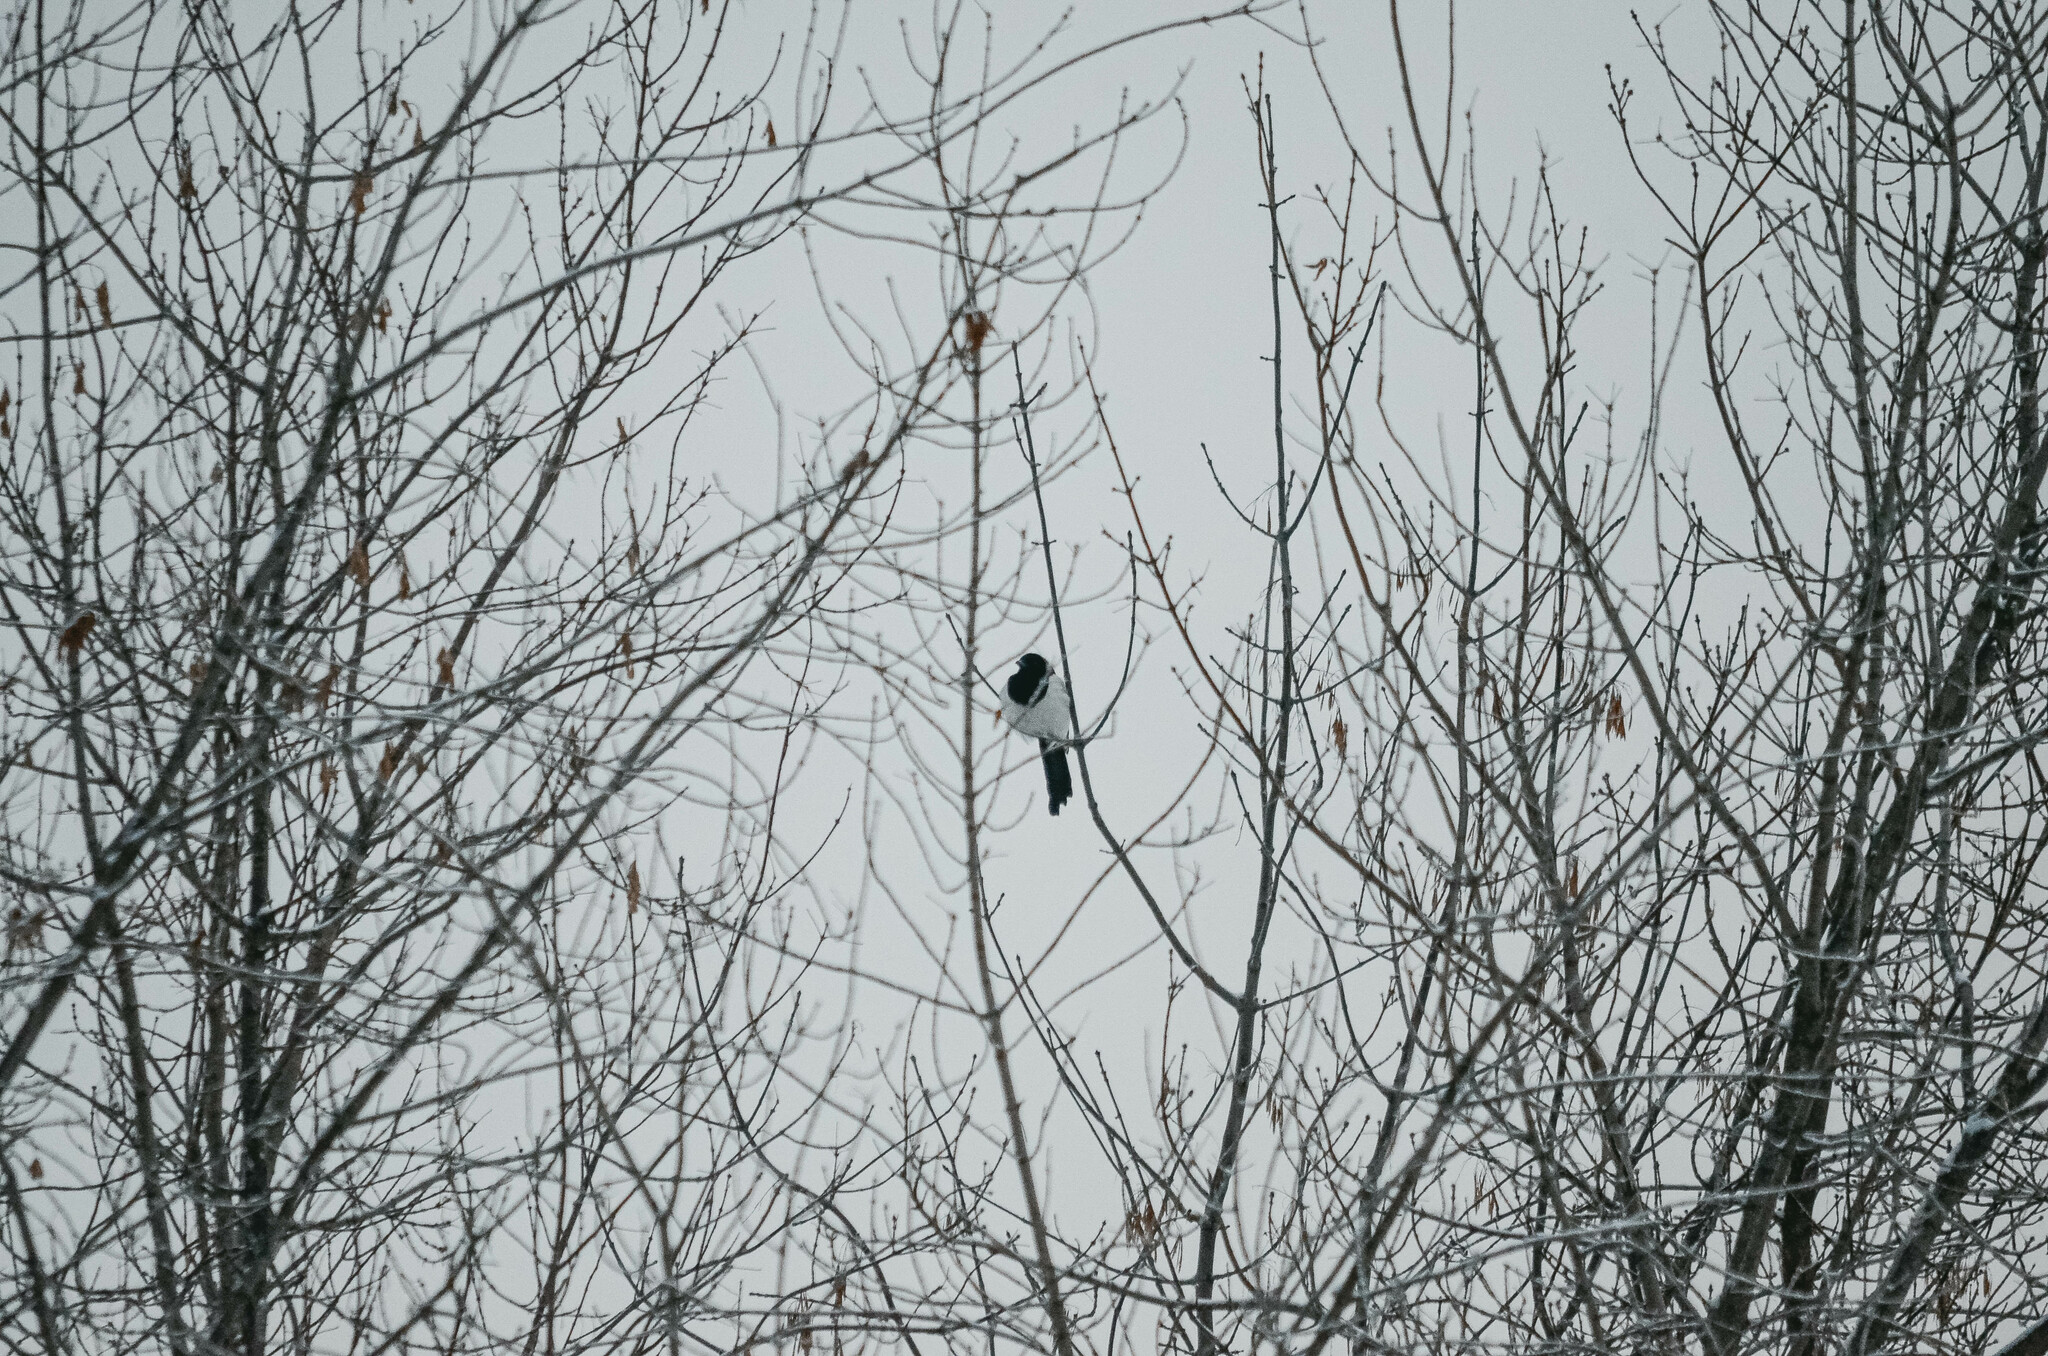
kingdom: Animalia
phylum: Chordata
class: Aves
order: Passeriformes
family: Corvidae
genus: Pica
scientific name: Pica pica
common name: Eurasian magpie
